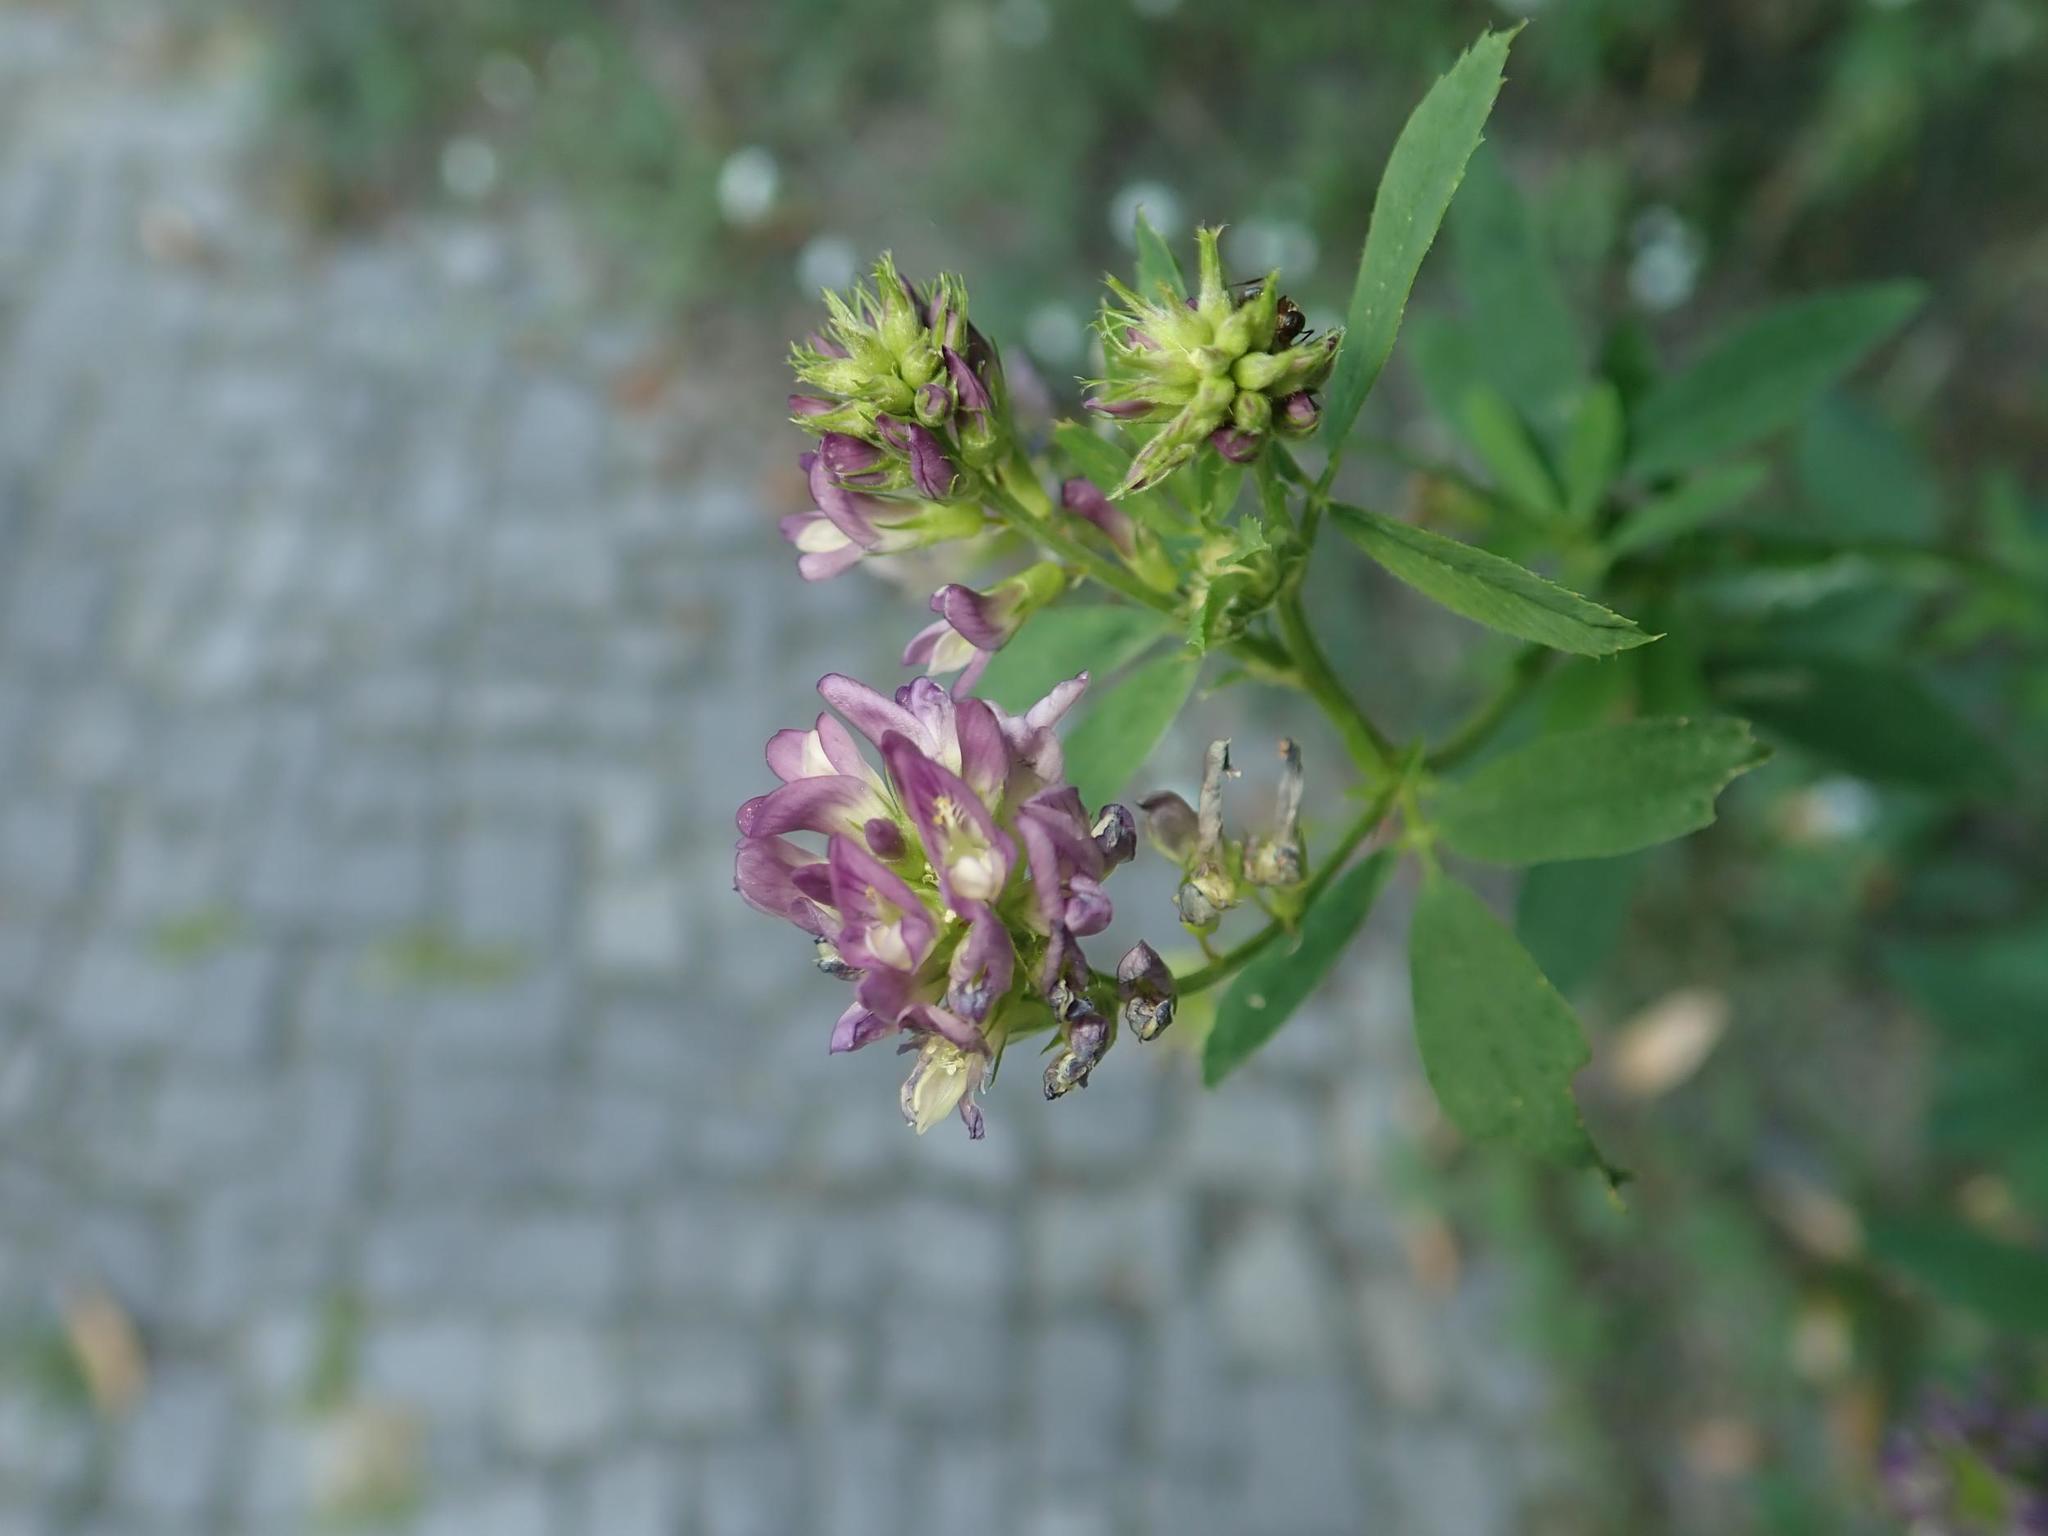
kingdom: Plantae
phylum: Tracheophyta
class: Magnoliopsida
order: Fabales
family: Fabaceae
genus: Medicago
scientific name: Medicago varia
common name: Sand lucerne
